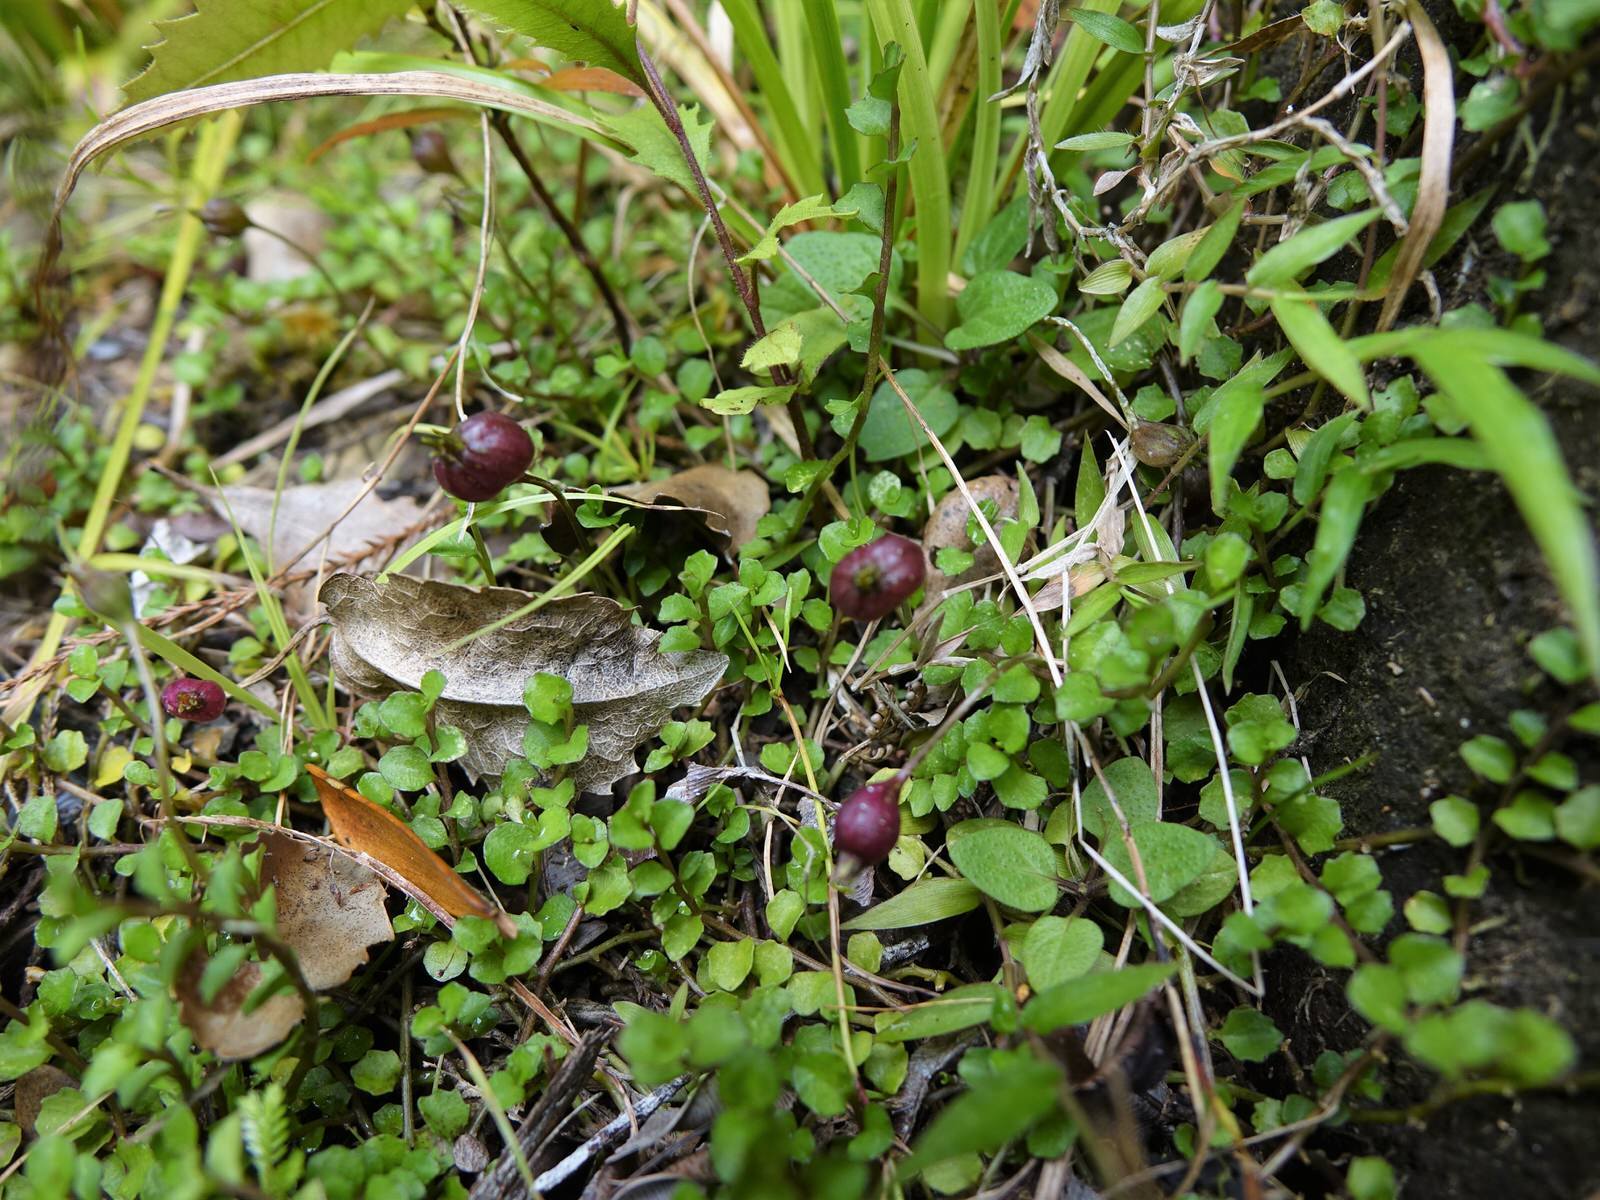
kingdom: Plantae
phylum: Tracheophyta
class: Magnoliopsida
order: Asterales
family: Campanulaceae
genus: Lobelia
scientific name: Lobelia angulata
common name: Lawn lobelia
